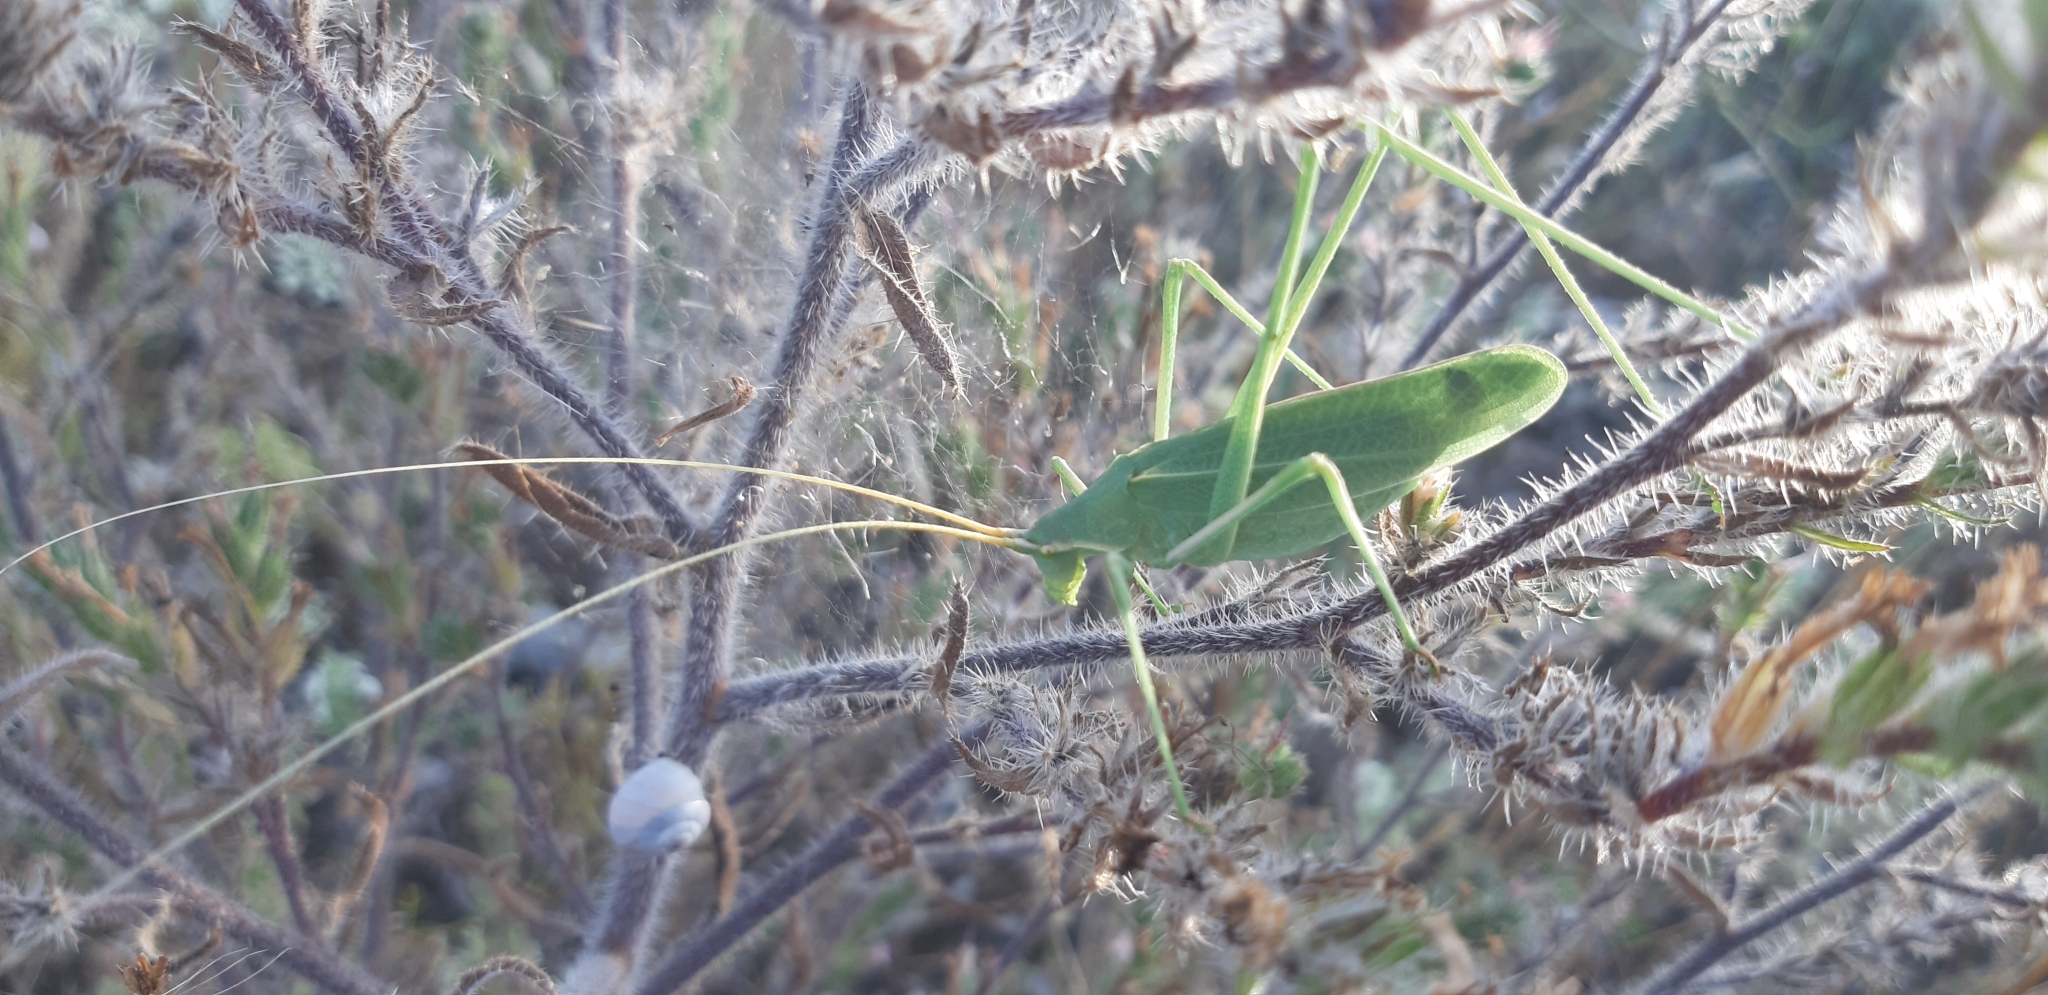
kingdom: Animalia
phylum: Arthropoda
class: Insecta
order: Orthoptera
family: Tettigoniidae
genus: Acrometopa
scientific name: Acrometopa italica
